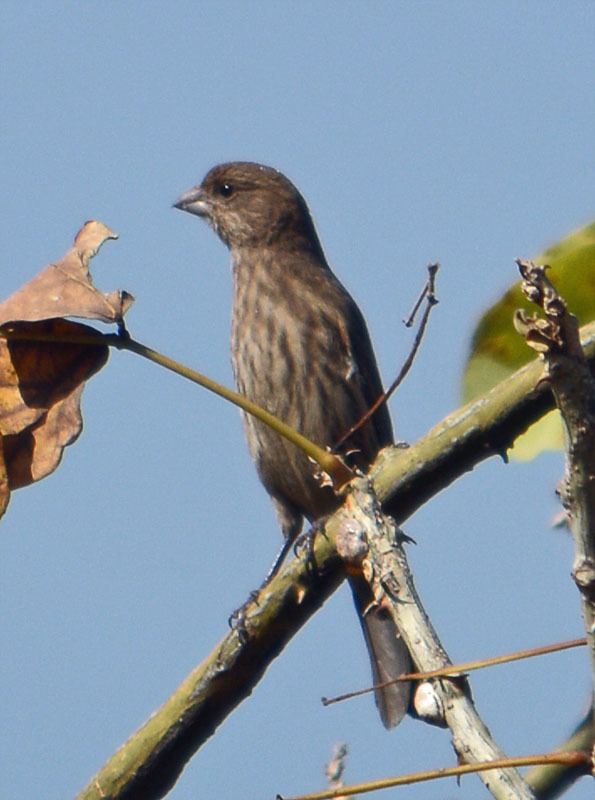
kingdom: Animalia
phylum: Chordata
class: Aves
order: Passeriformes
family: Fringillidae
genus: Haemorhous
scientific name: Haemorhous mexicanus
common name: House finch
